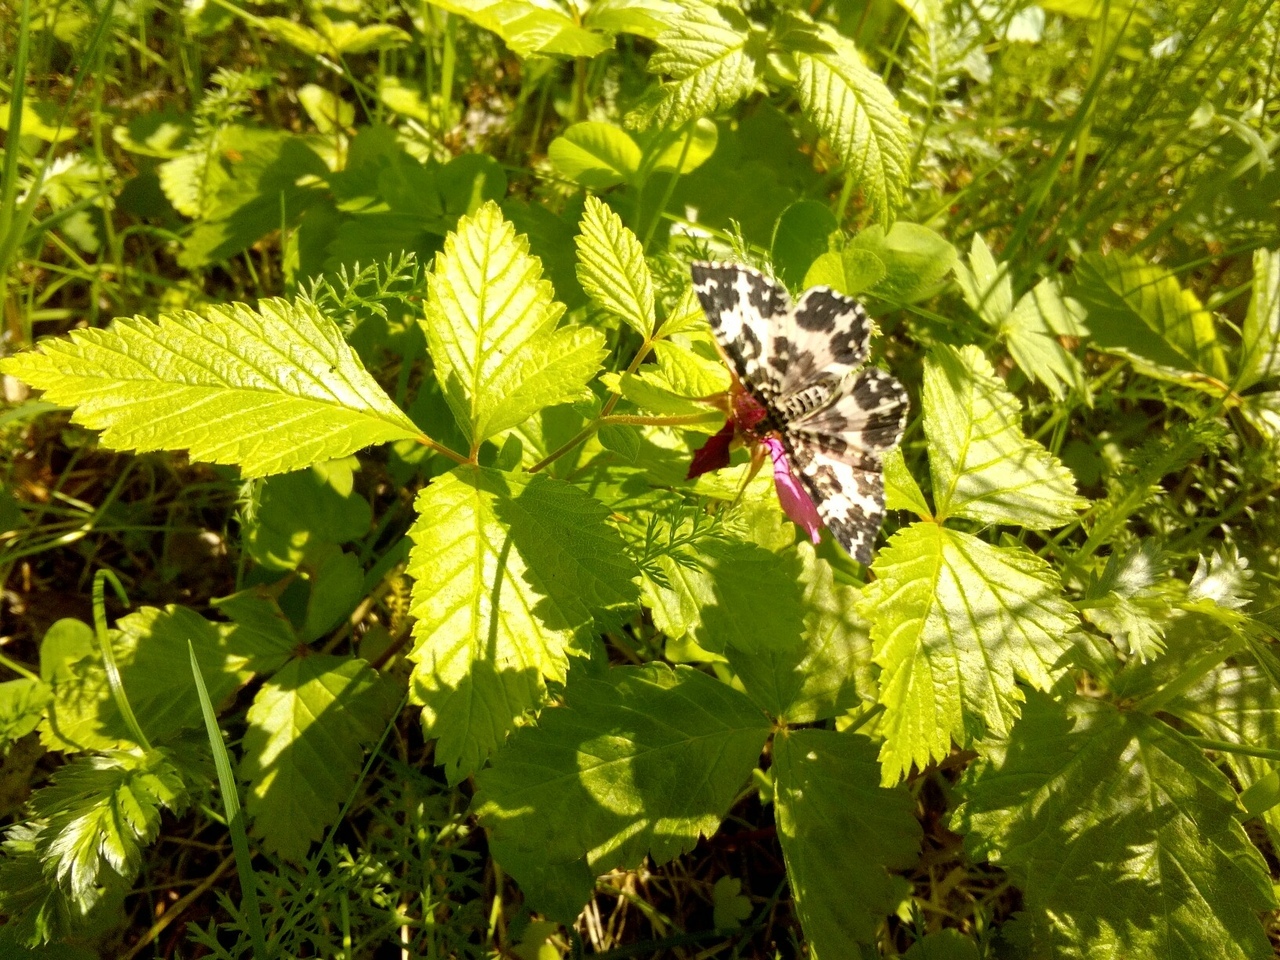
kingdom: Animalia
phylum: Arthropoda
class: Insecta
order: Lepidoptera
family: Geometridae
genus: Rheumaptera
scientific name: Rheumaptera hastata
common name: Argent & sable
